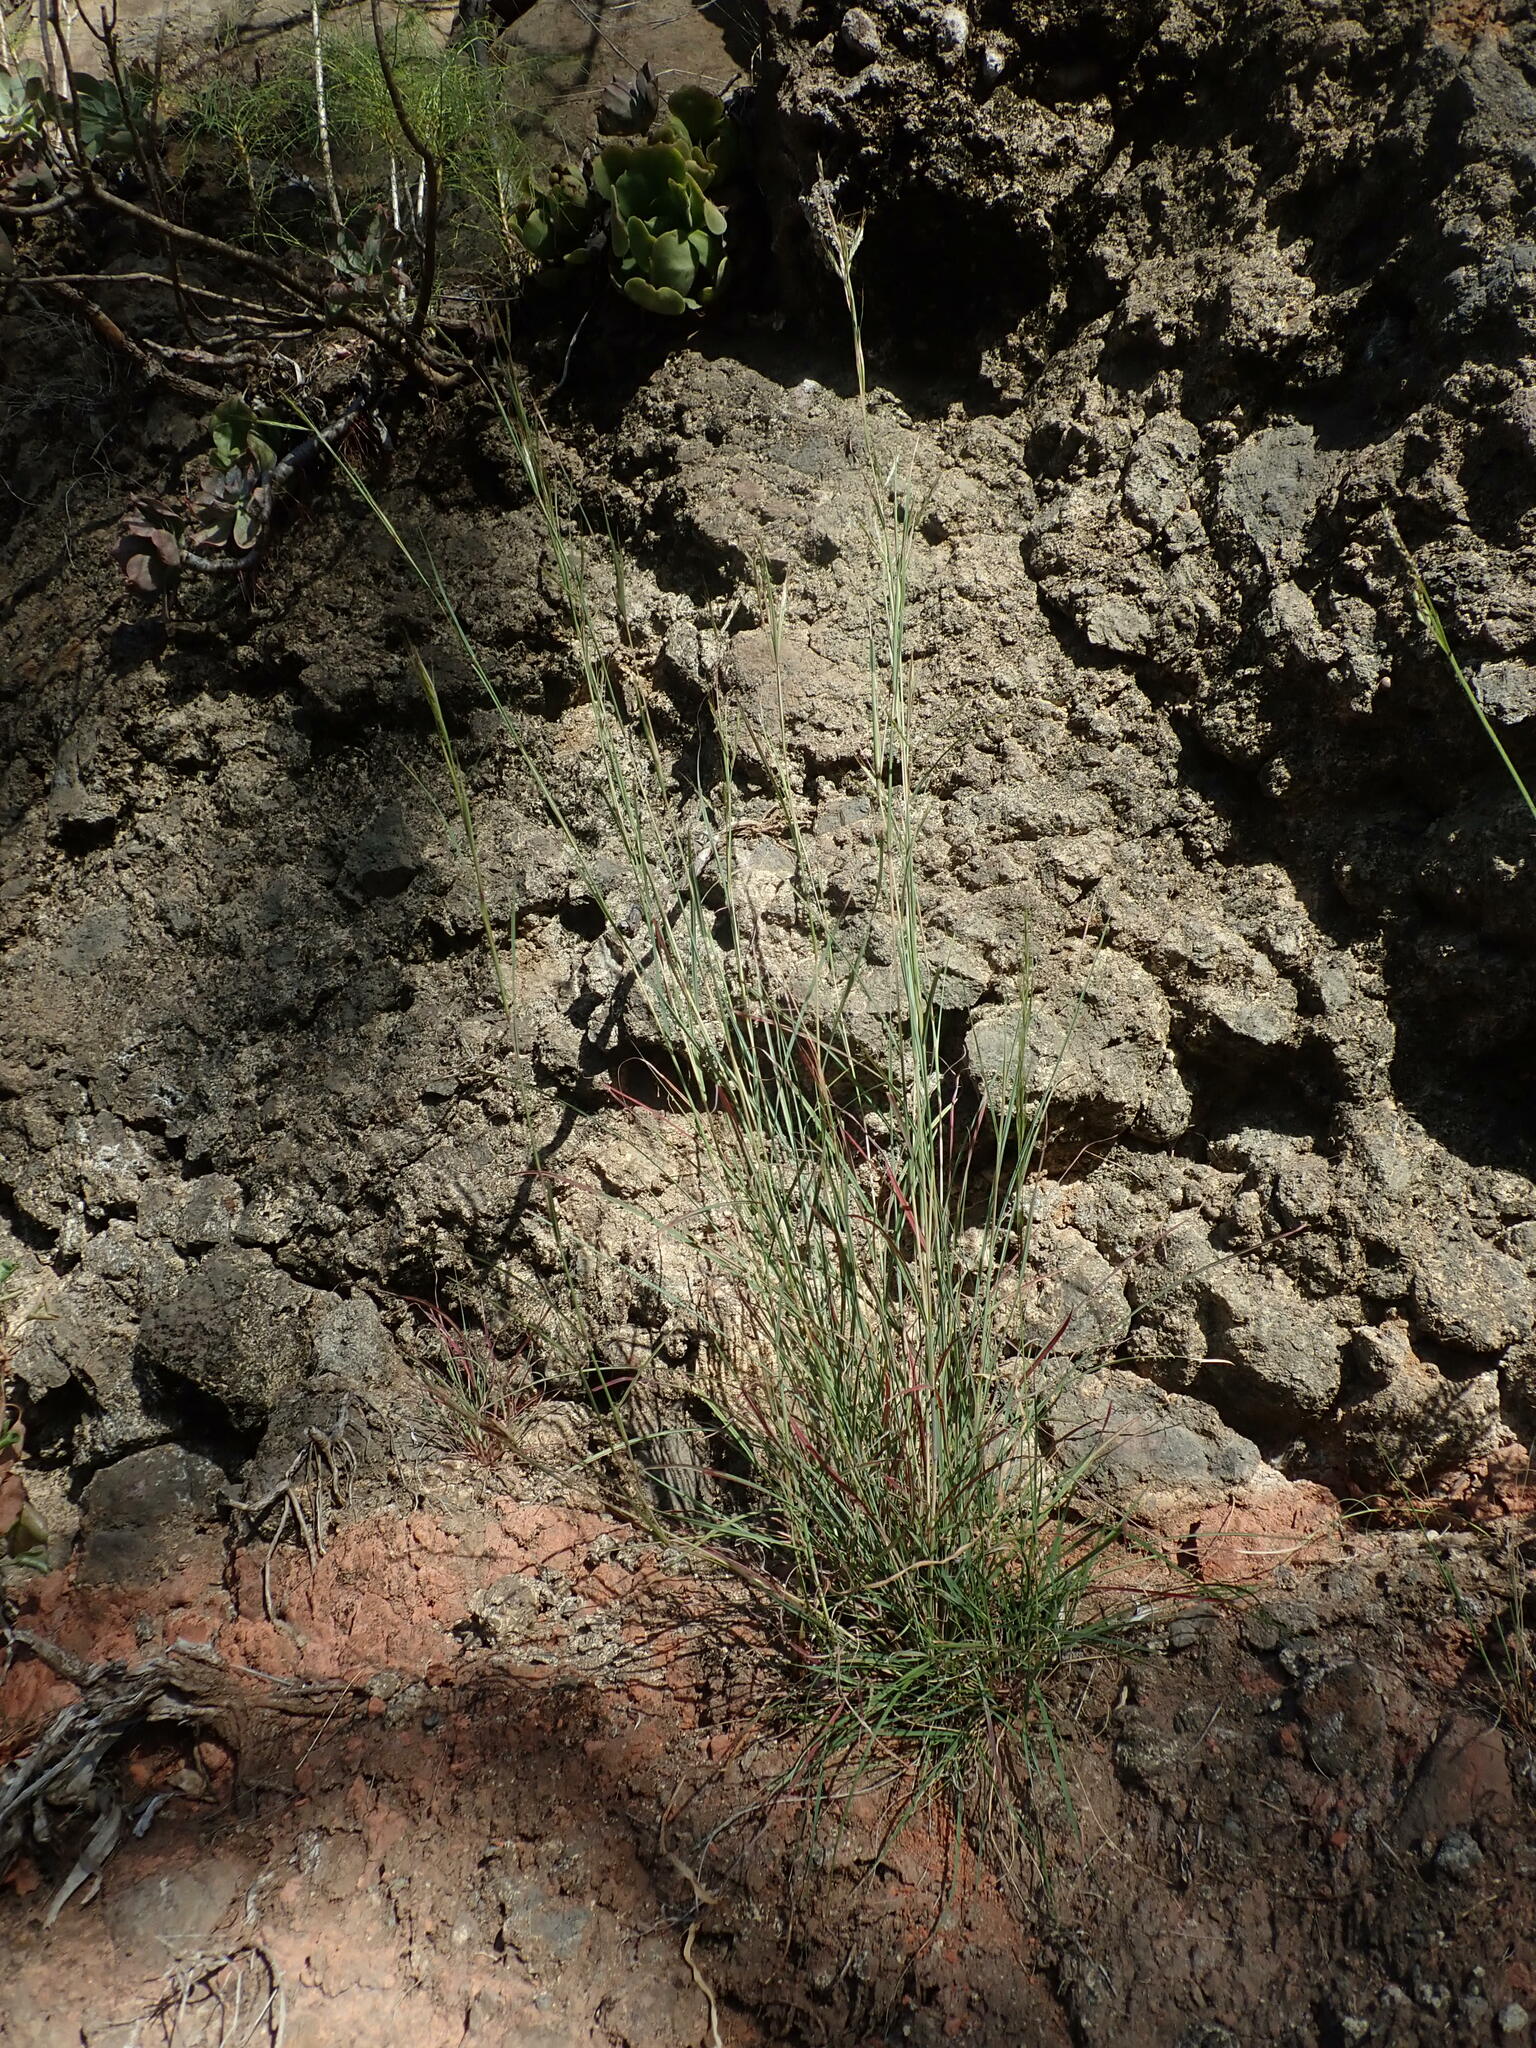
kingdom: Plantae
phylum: Tracheophyta
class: Liliopsida
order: Poales
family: Poaceae
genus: Hyparrhenia
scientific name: Hyparrhenia hirta
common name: Thatching grass
